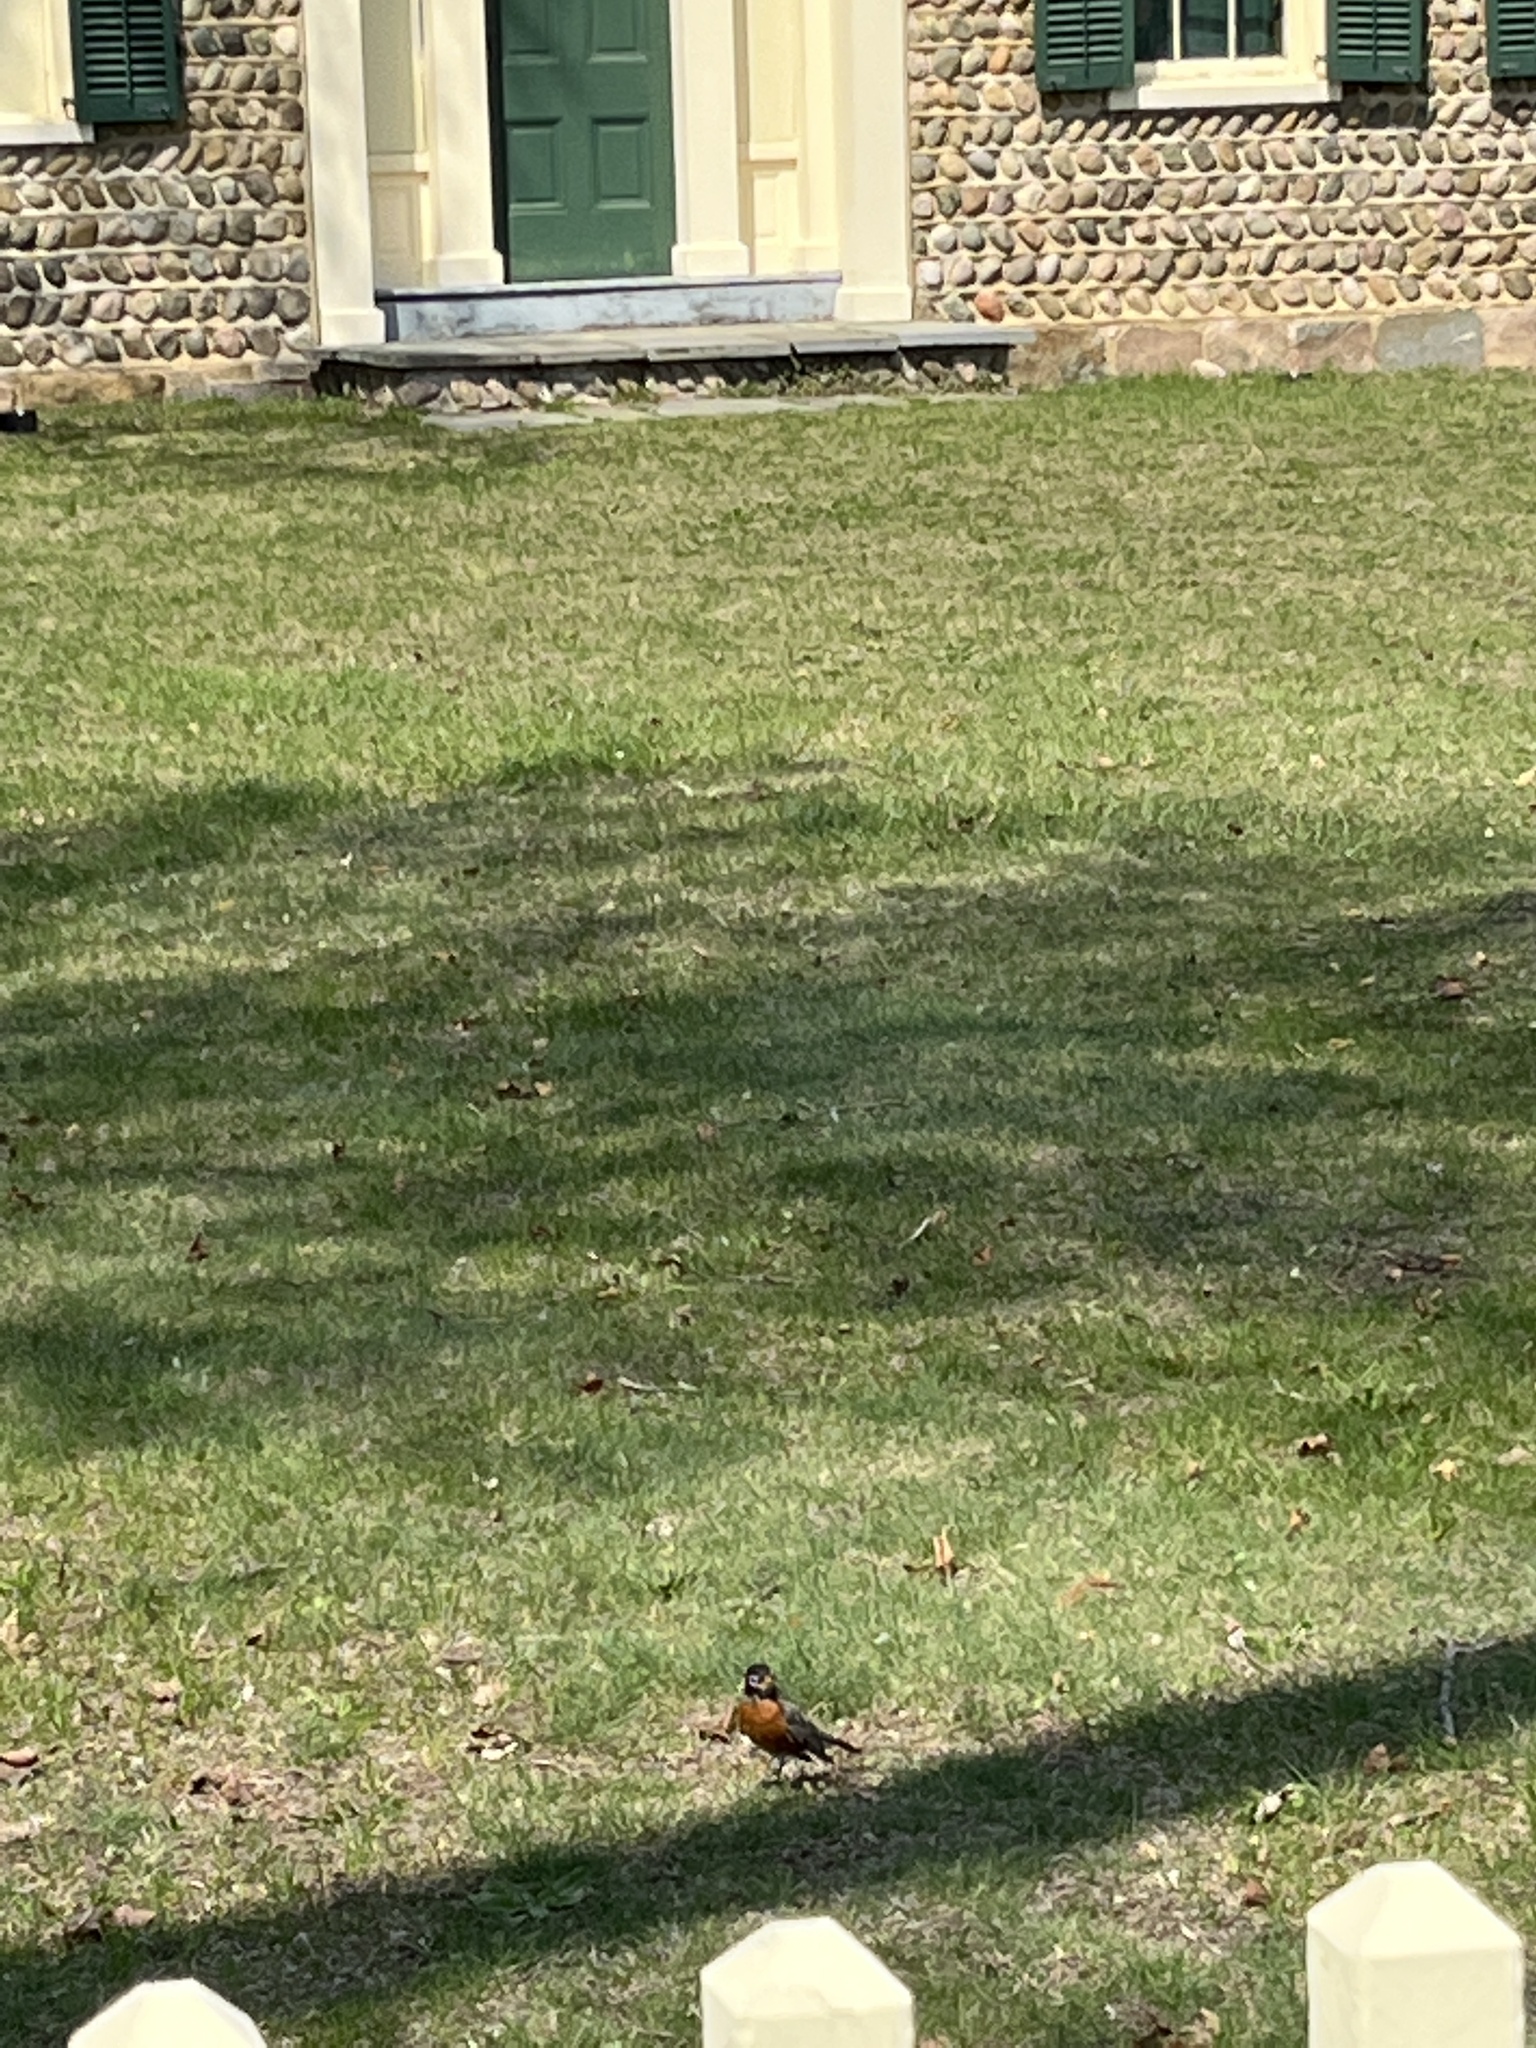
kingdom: Animalia
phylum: Chordata
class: Aves
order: Passeriformes
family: Turdidae
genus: Turdus
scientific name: Turdus migratorius
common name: American robin
